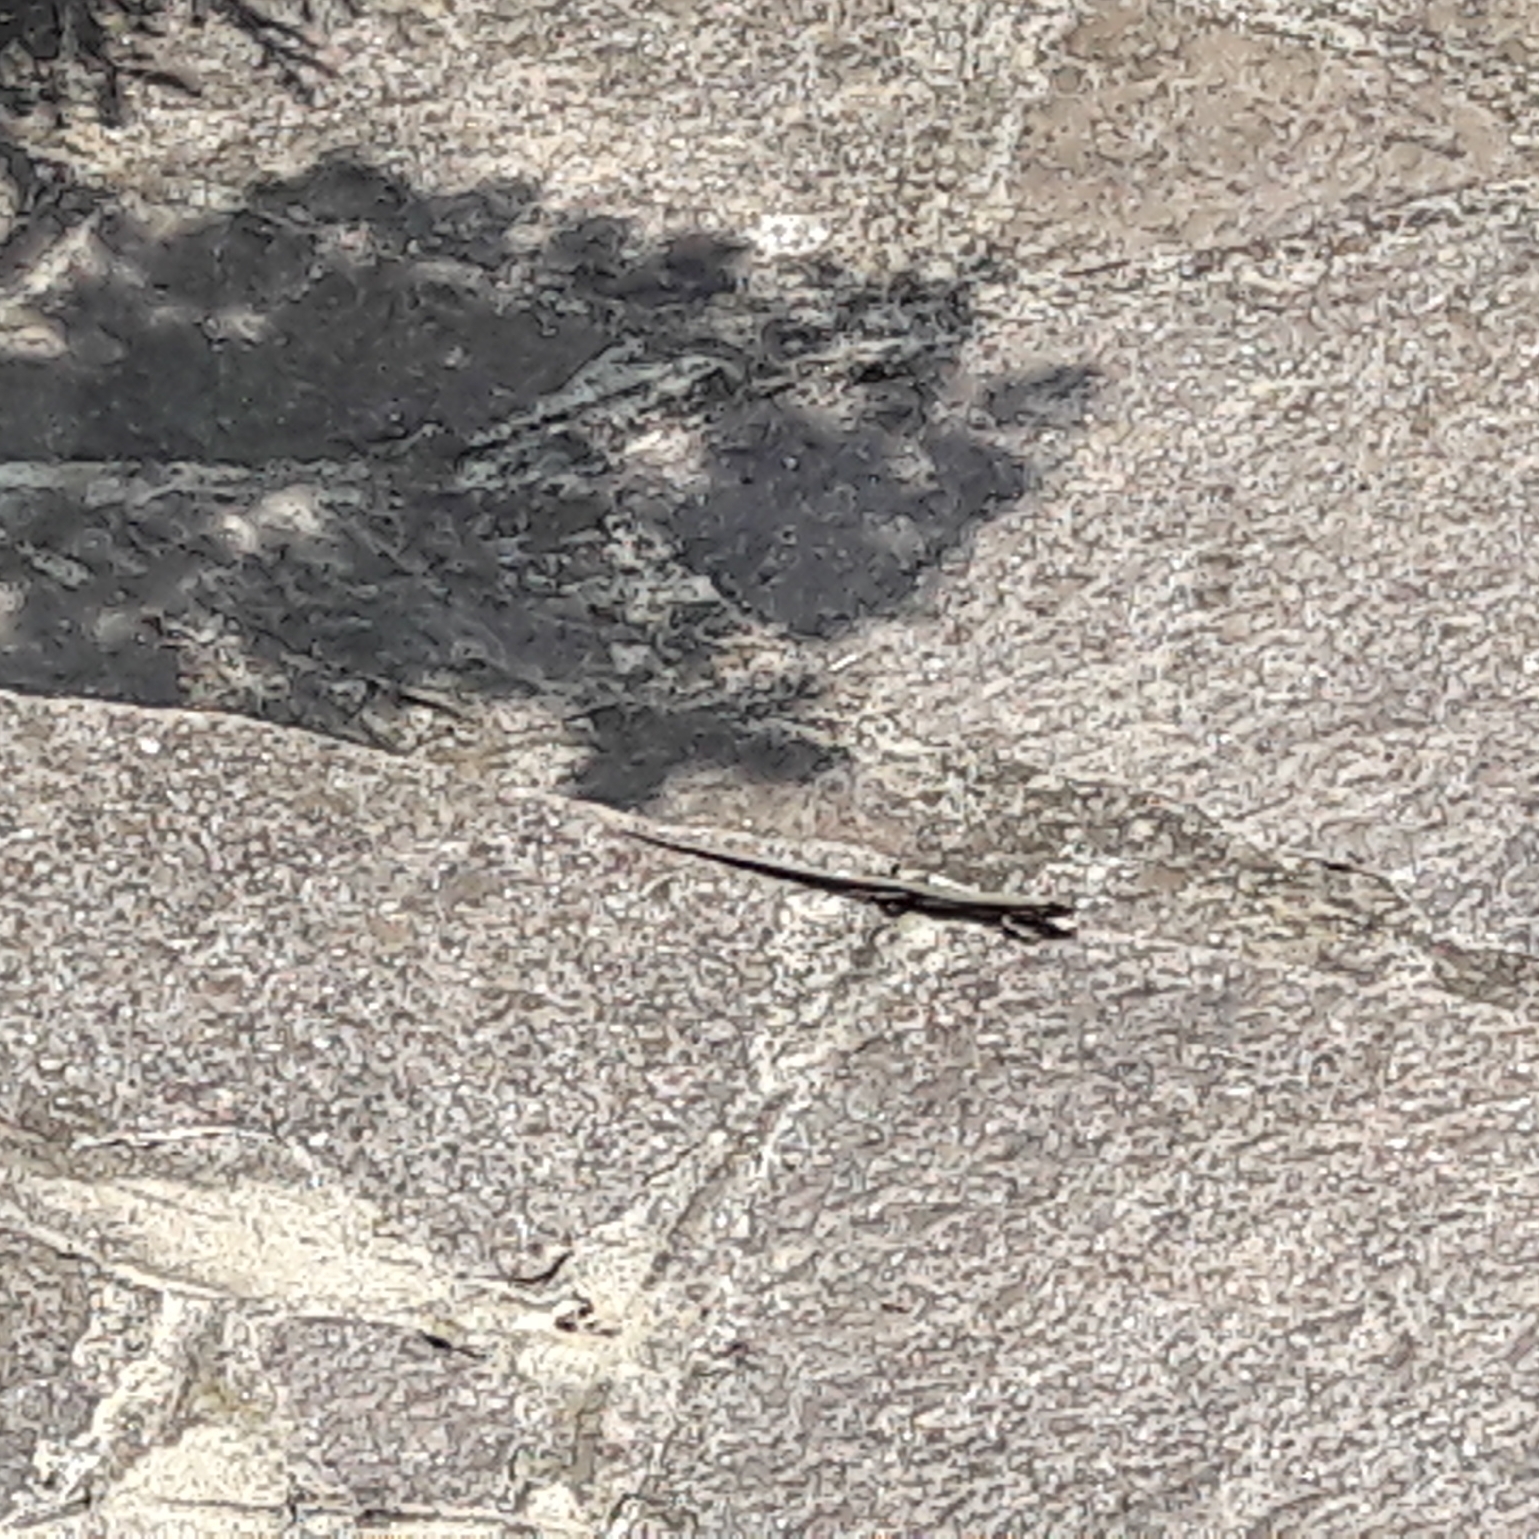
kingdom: Animalia
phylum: Chordata
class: Squamata
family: Lacertidae
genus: Podarcis
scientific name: Podarcis muralis
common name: Common wall lizard
